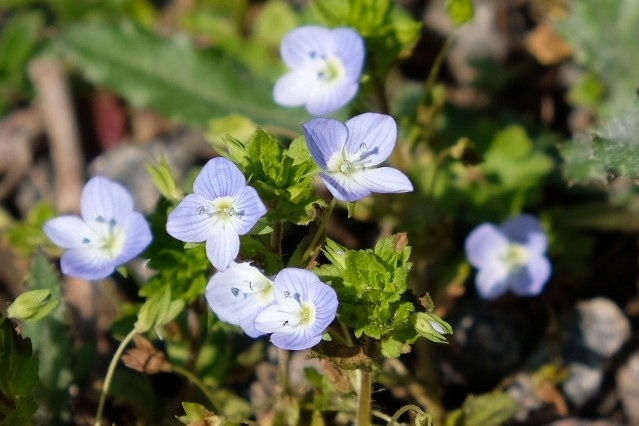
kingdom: Plantae
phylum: Tracheophyta
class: Magnoliopsida
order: Lamiales
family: Plantaginaceae
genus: Veronica
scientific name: Veronica persica
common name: Common field-speedwell
